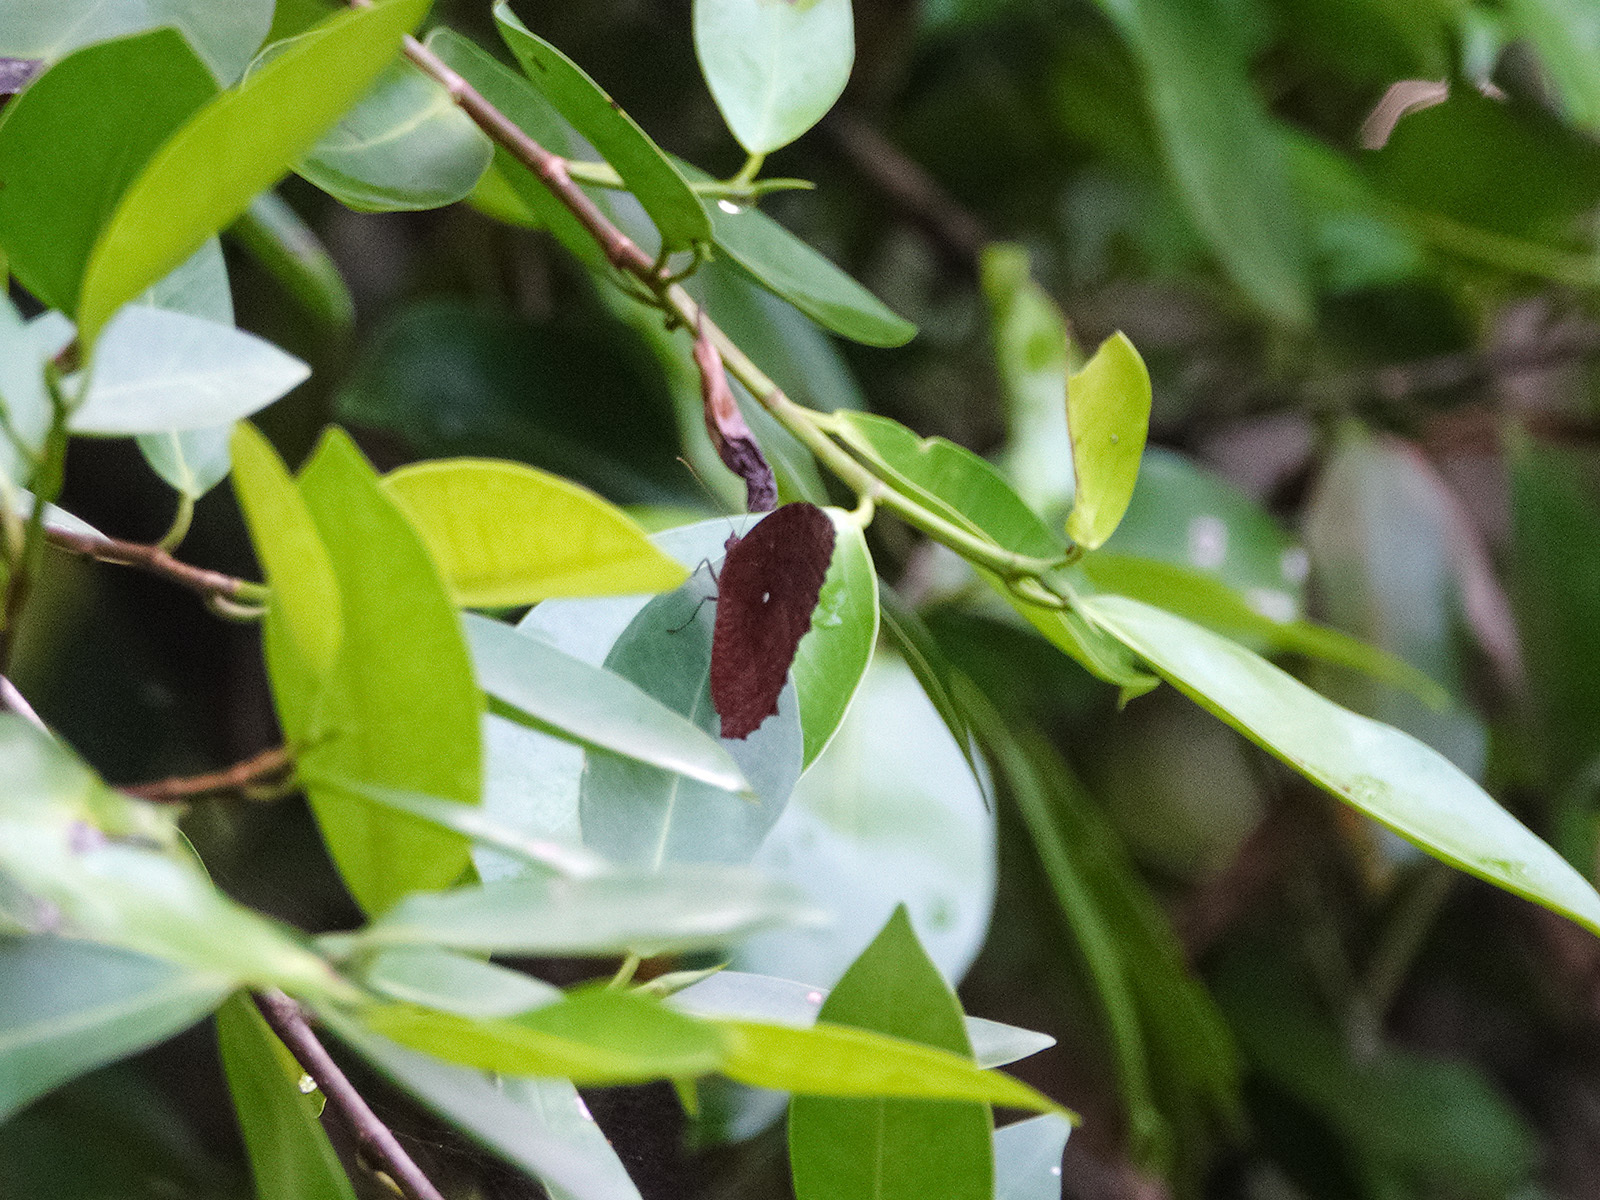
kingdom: Animalia
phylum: Arthropoda
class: Insecta
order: Lepidoptera
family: Nymphalidae
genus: Elymnias
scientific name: Elymnias hypermnestra
